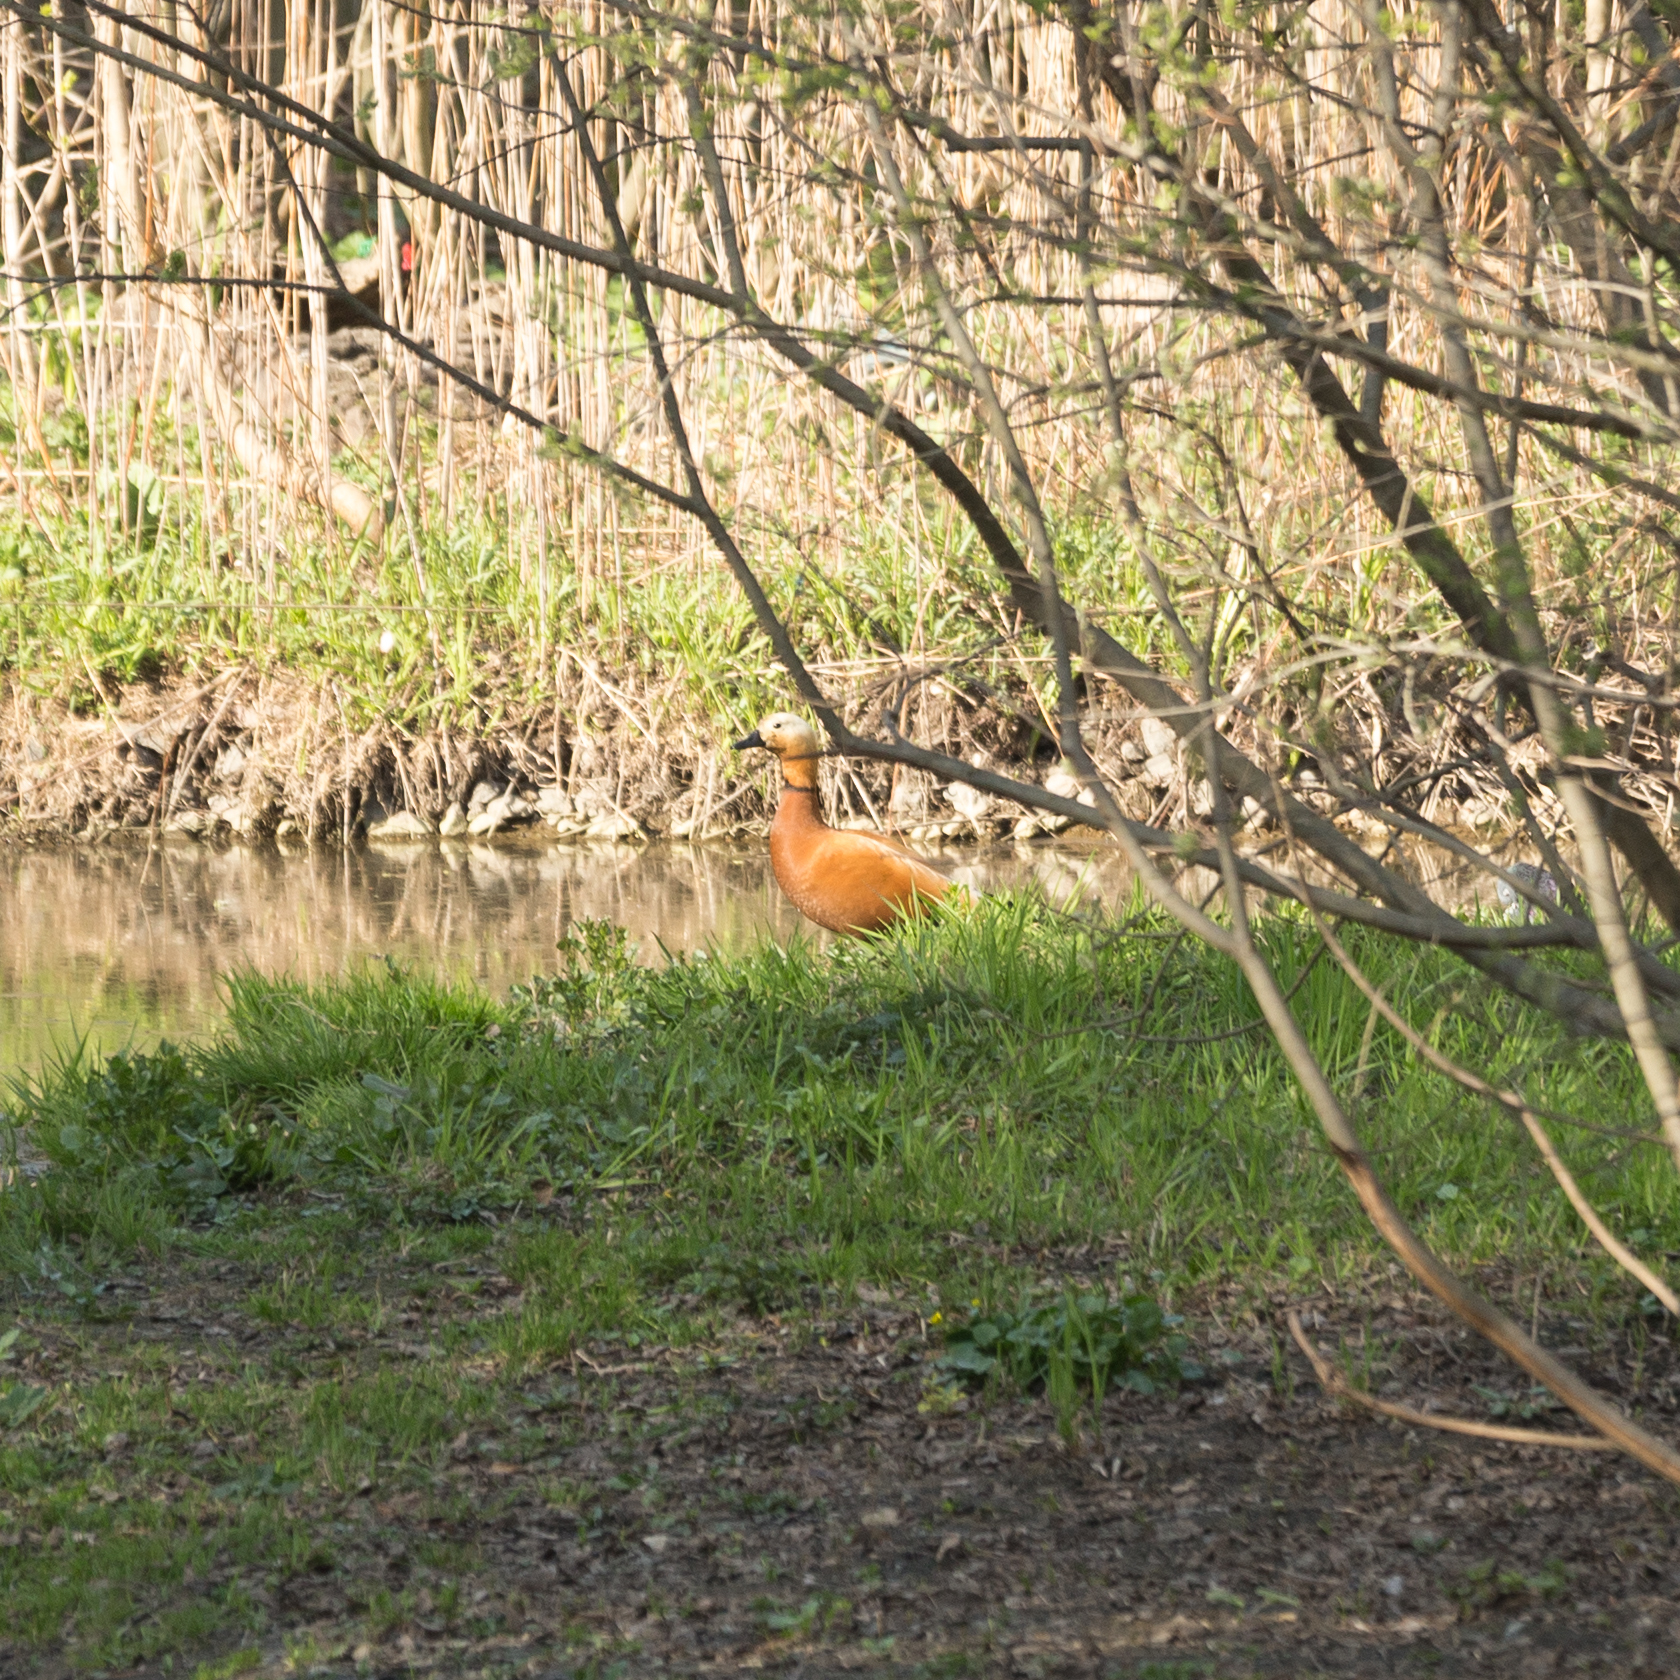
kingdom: Animalia
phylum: Chordata
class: Aves
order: Anseriformes
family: Anatidae
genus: Tadorna
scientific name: Tadorna ferruginea
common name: Ruddy shelduck
